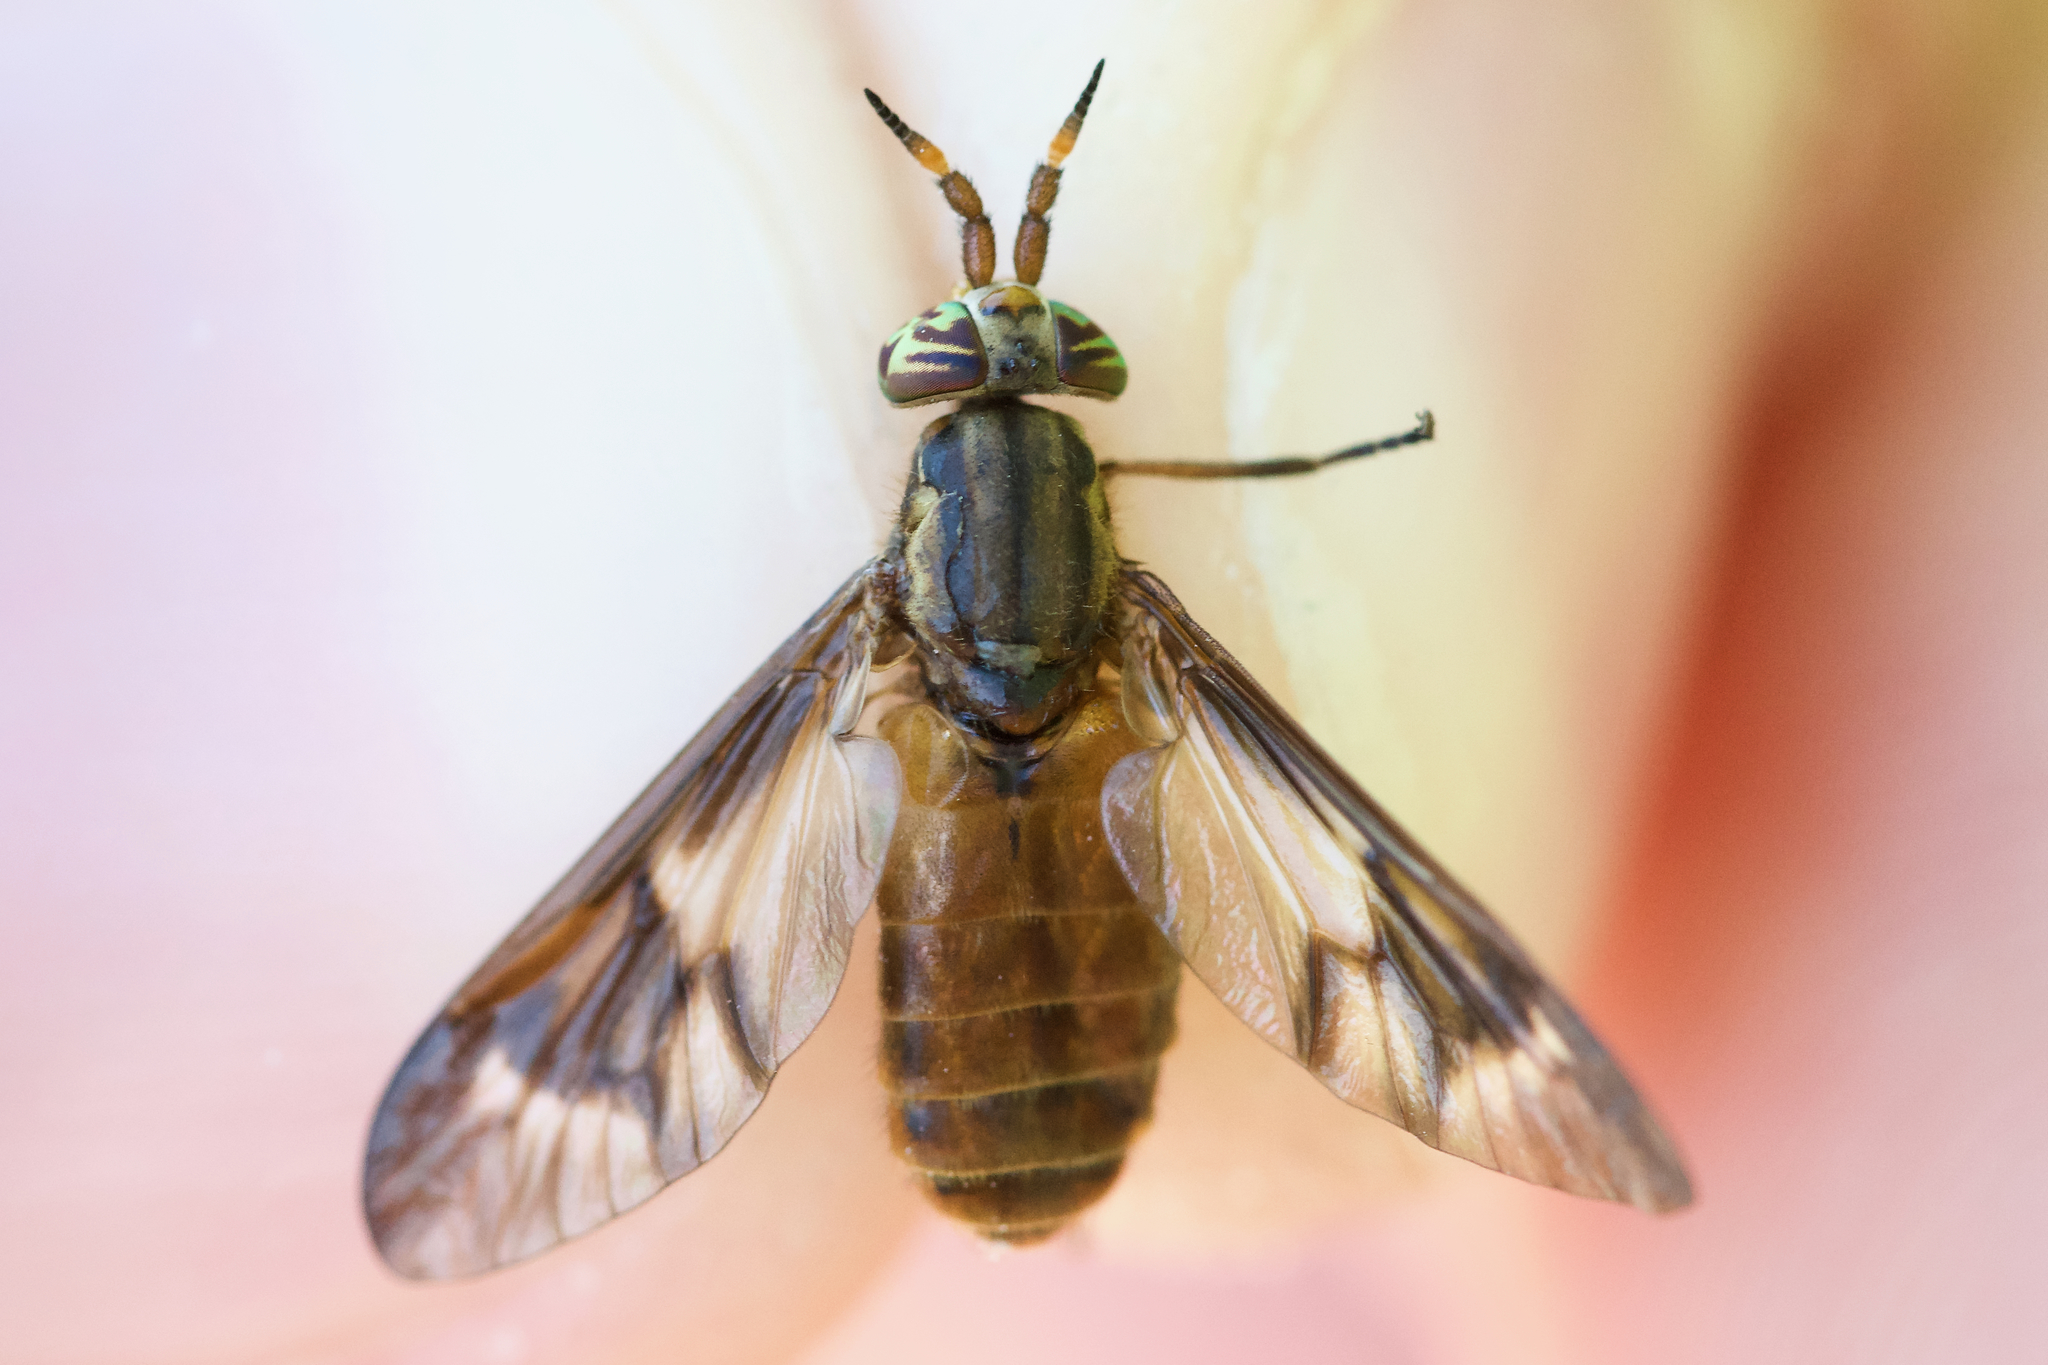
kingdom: Animalia
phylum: Arthropoda
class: Insecta
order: Diptera
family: Tabanidae
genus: Chrysops
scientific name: Chrysops brunneus
